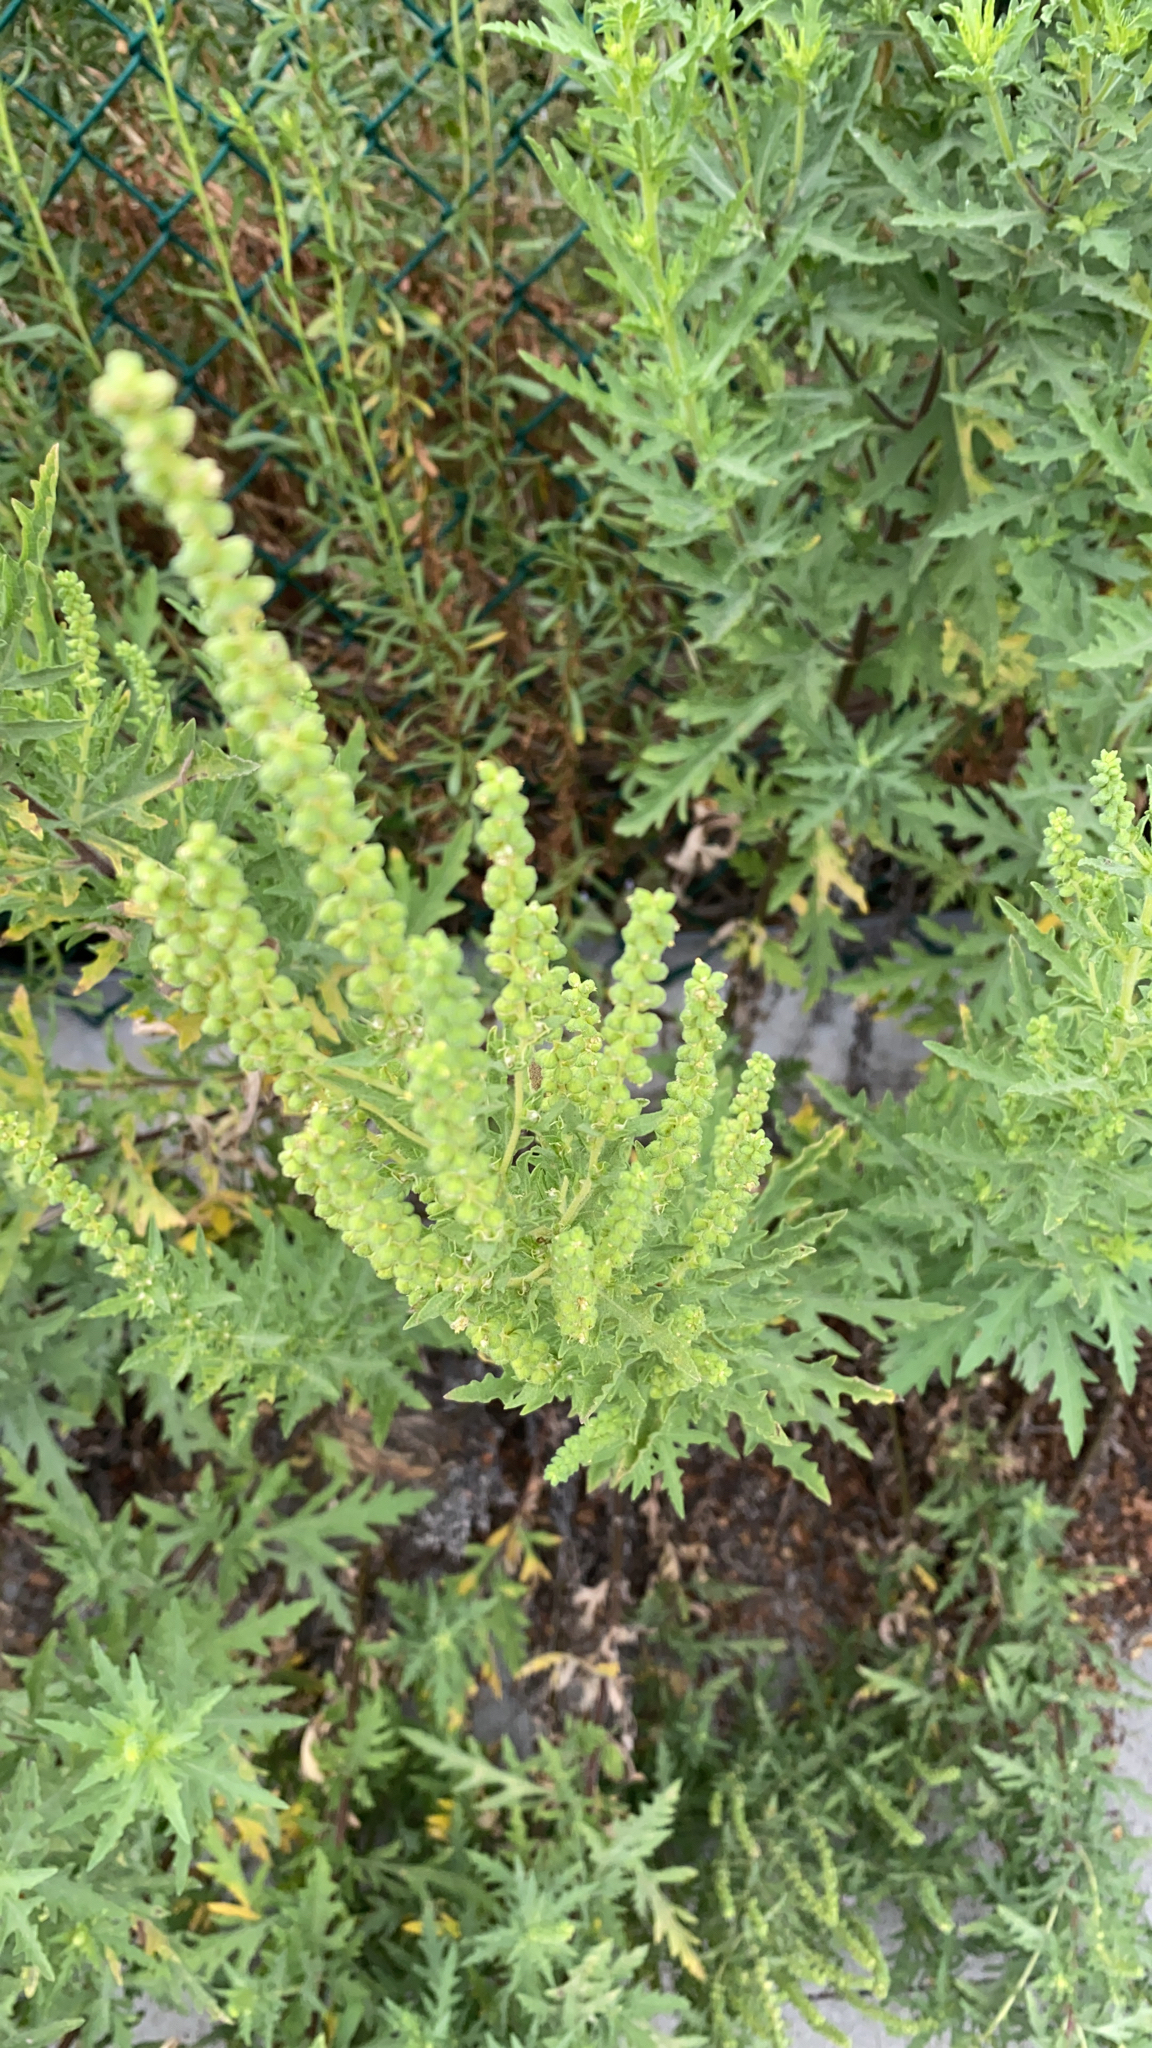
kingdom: Plantae
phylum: Tracheophyta
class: Magnoliopsida
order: Asterales
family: Asteraceae
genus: Ambrosia
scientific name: Ambrosia psilostachya
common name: Perennial ragweed
